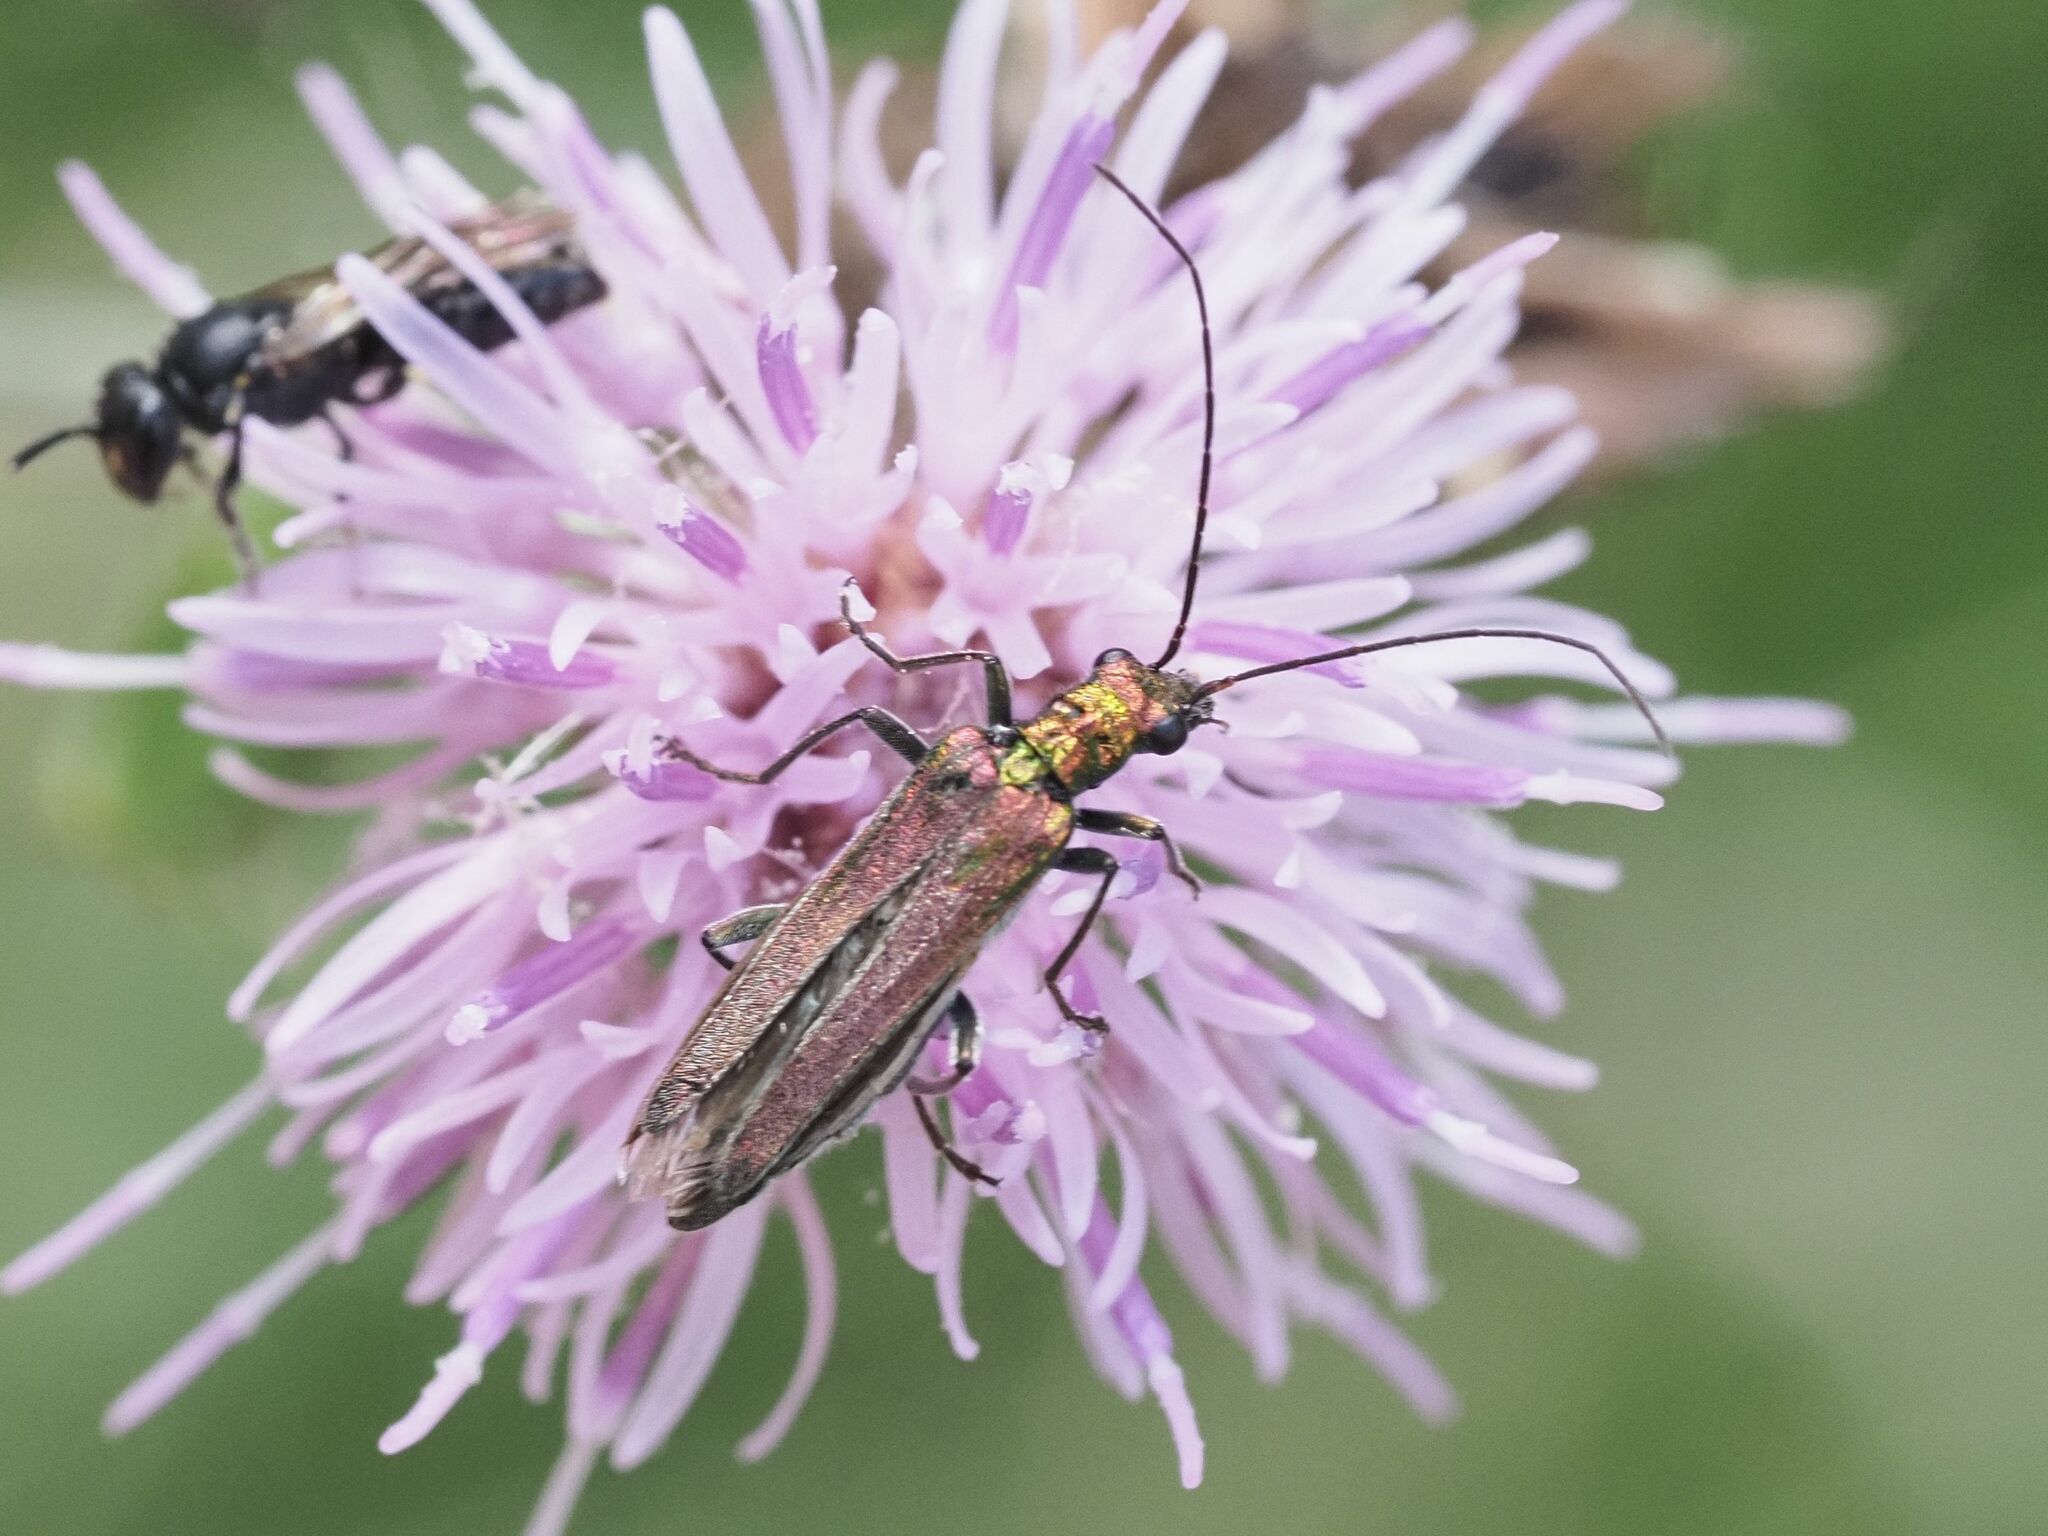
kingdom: Animalia
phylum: Arthropoda
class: Insecta
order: Coleoptera
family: Oedemeridae
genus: Oedemera
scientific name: Oedemera nobilis
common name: Swollen-thighed beetle
